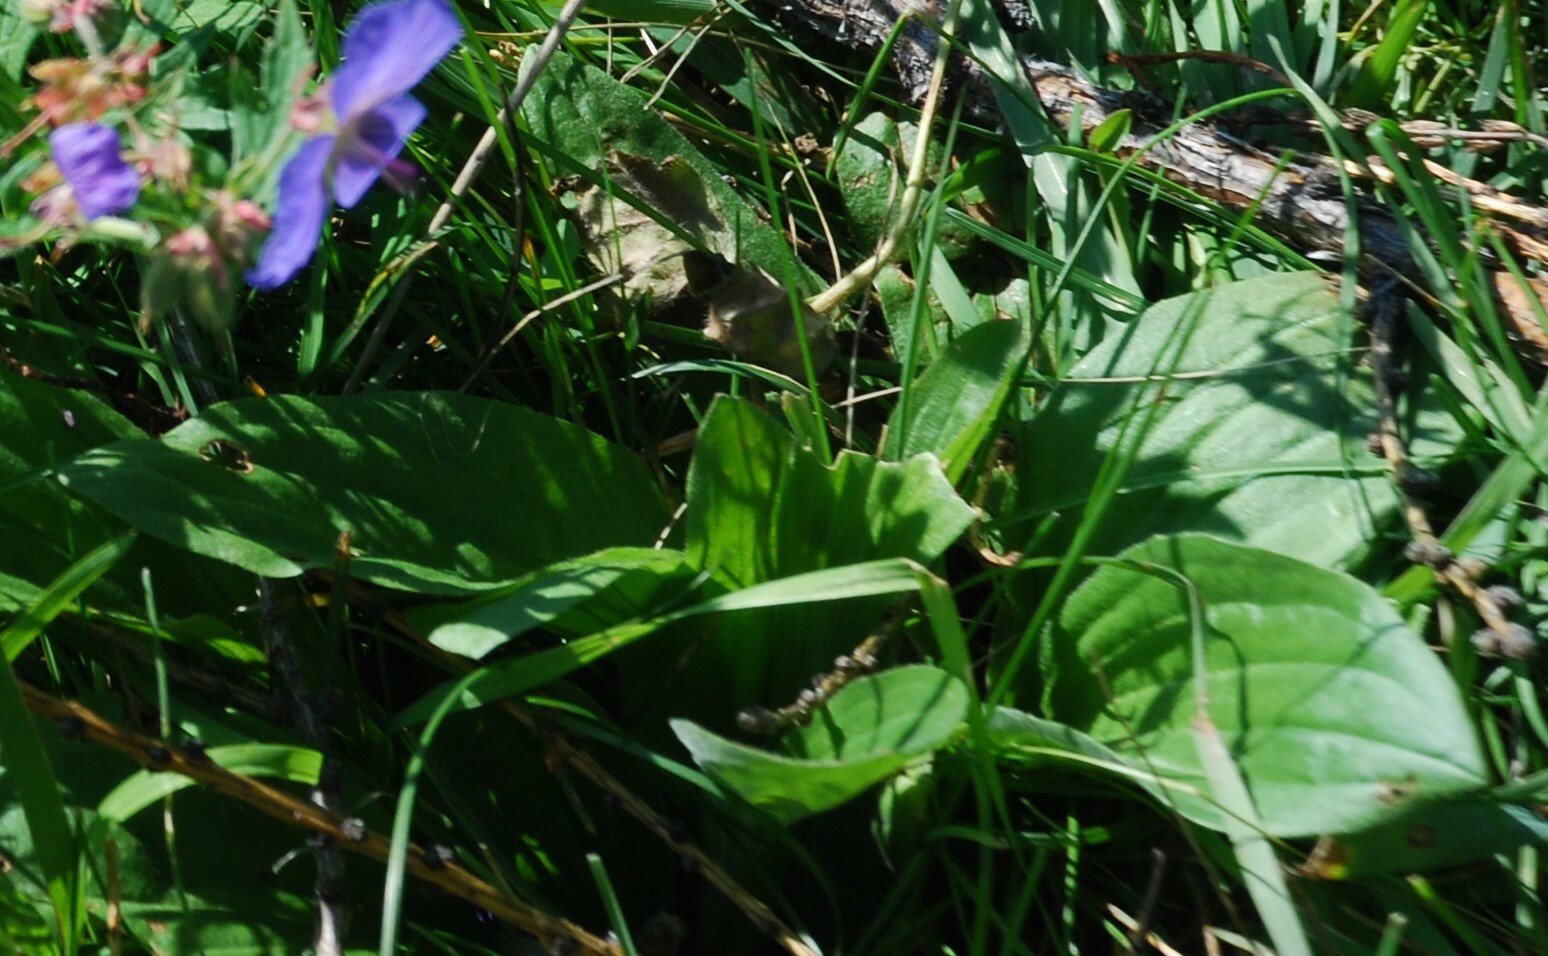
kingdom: Plantae
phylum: Tracheophyta
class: Magnoliopsida
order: Lamiales
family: Plantaginaceae
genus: Plantago
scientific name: Plantago media
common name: Hoary plantain
